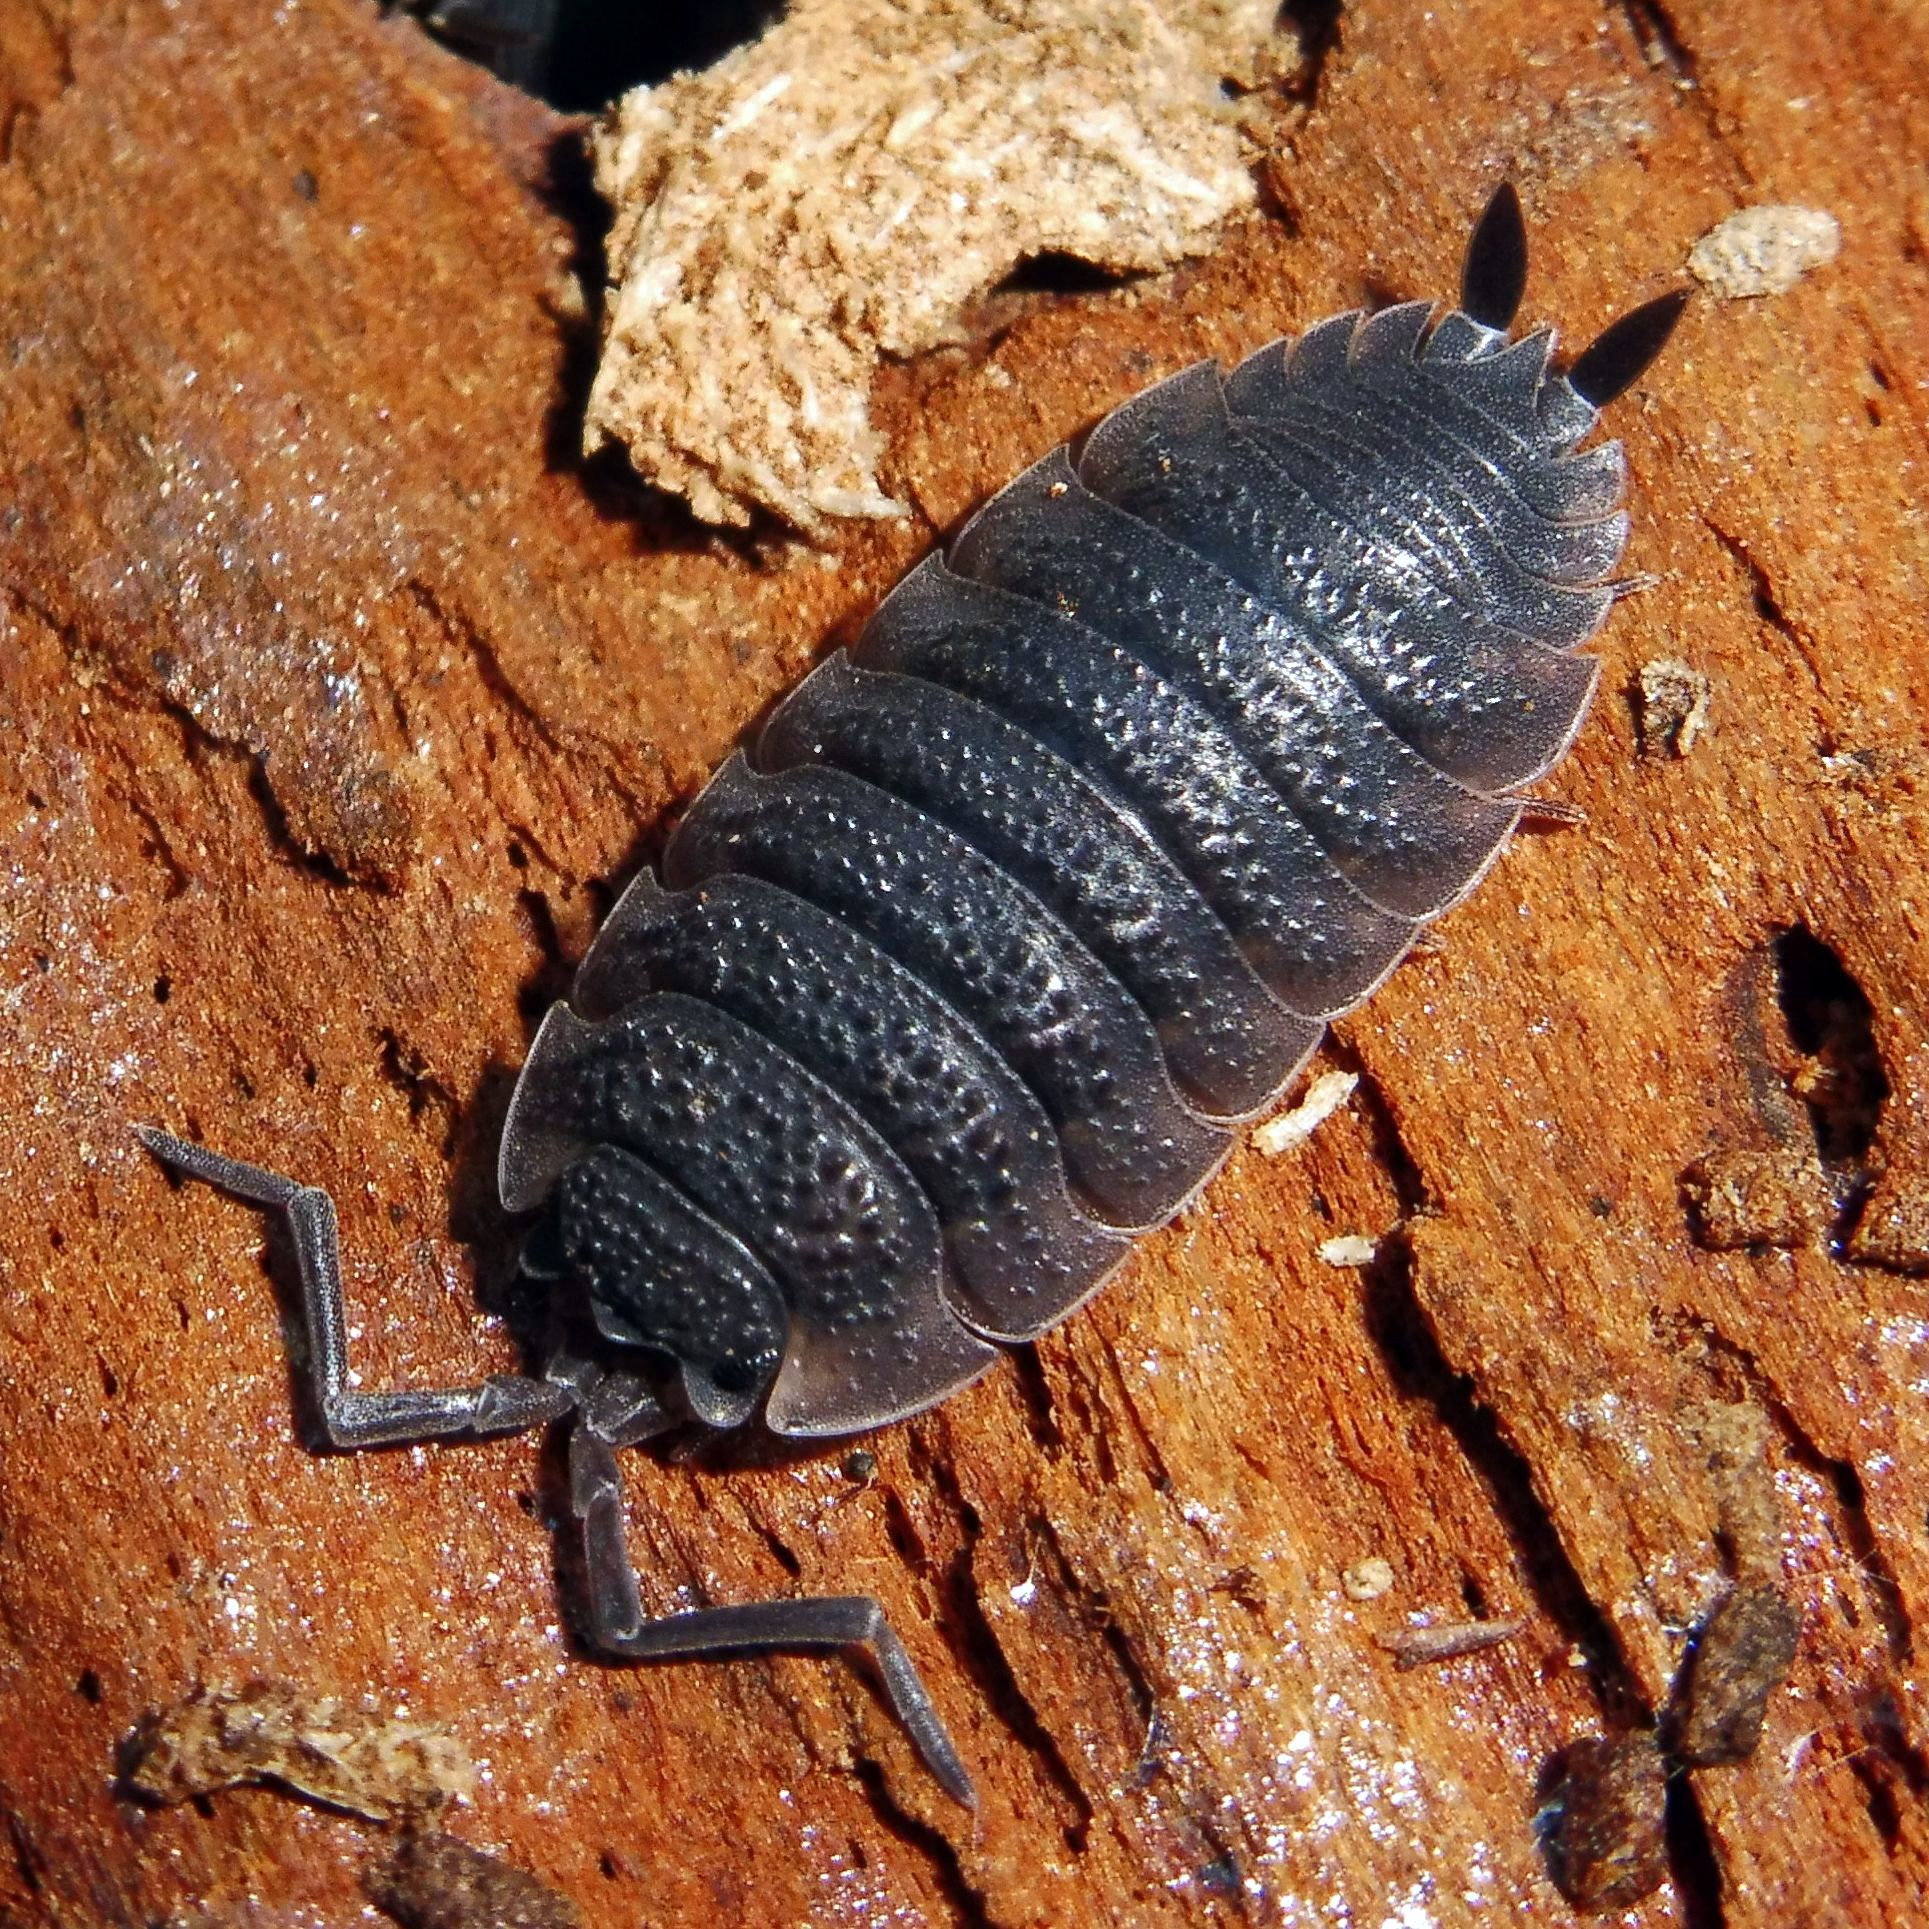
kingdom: Animalia
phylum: Arthropoda
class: Malacostraca
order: Isopoda
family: Porcellionidae
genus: Porcellio
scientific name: Porcellio scaber
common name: Common rough woodlouse
